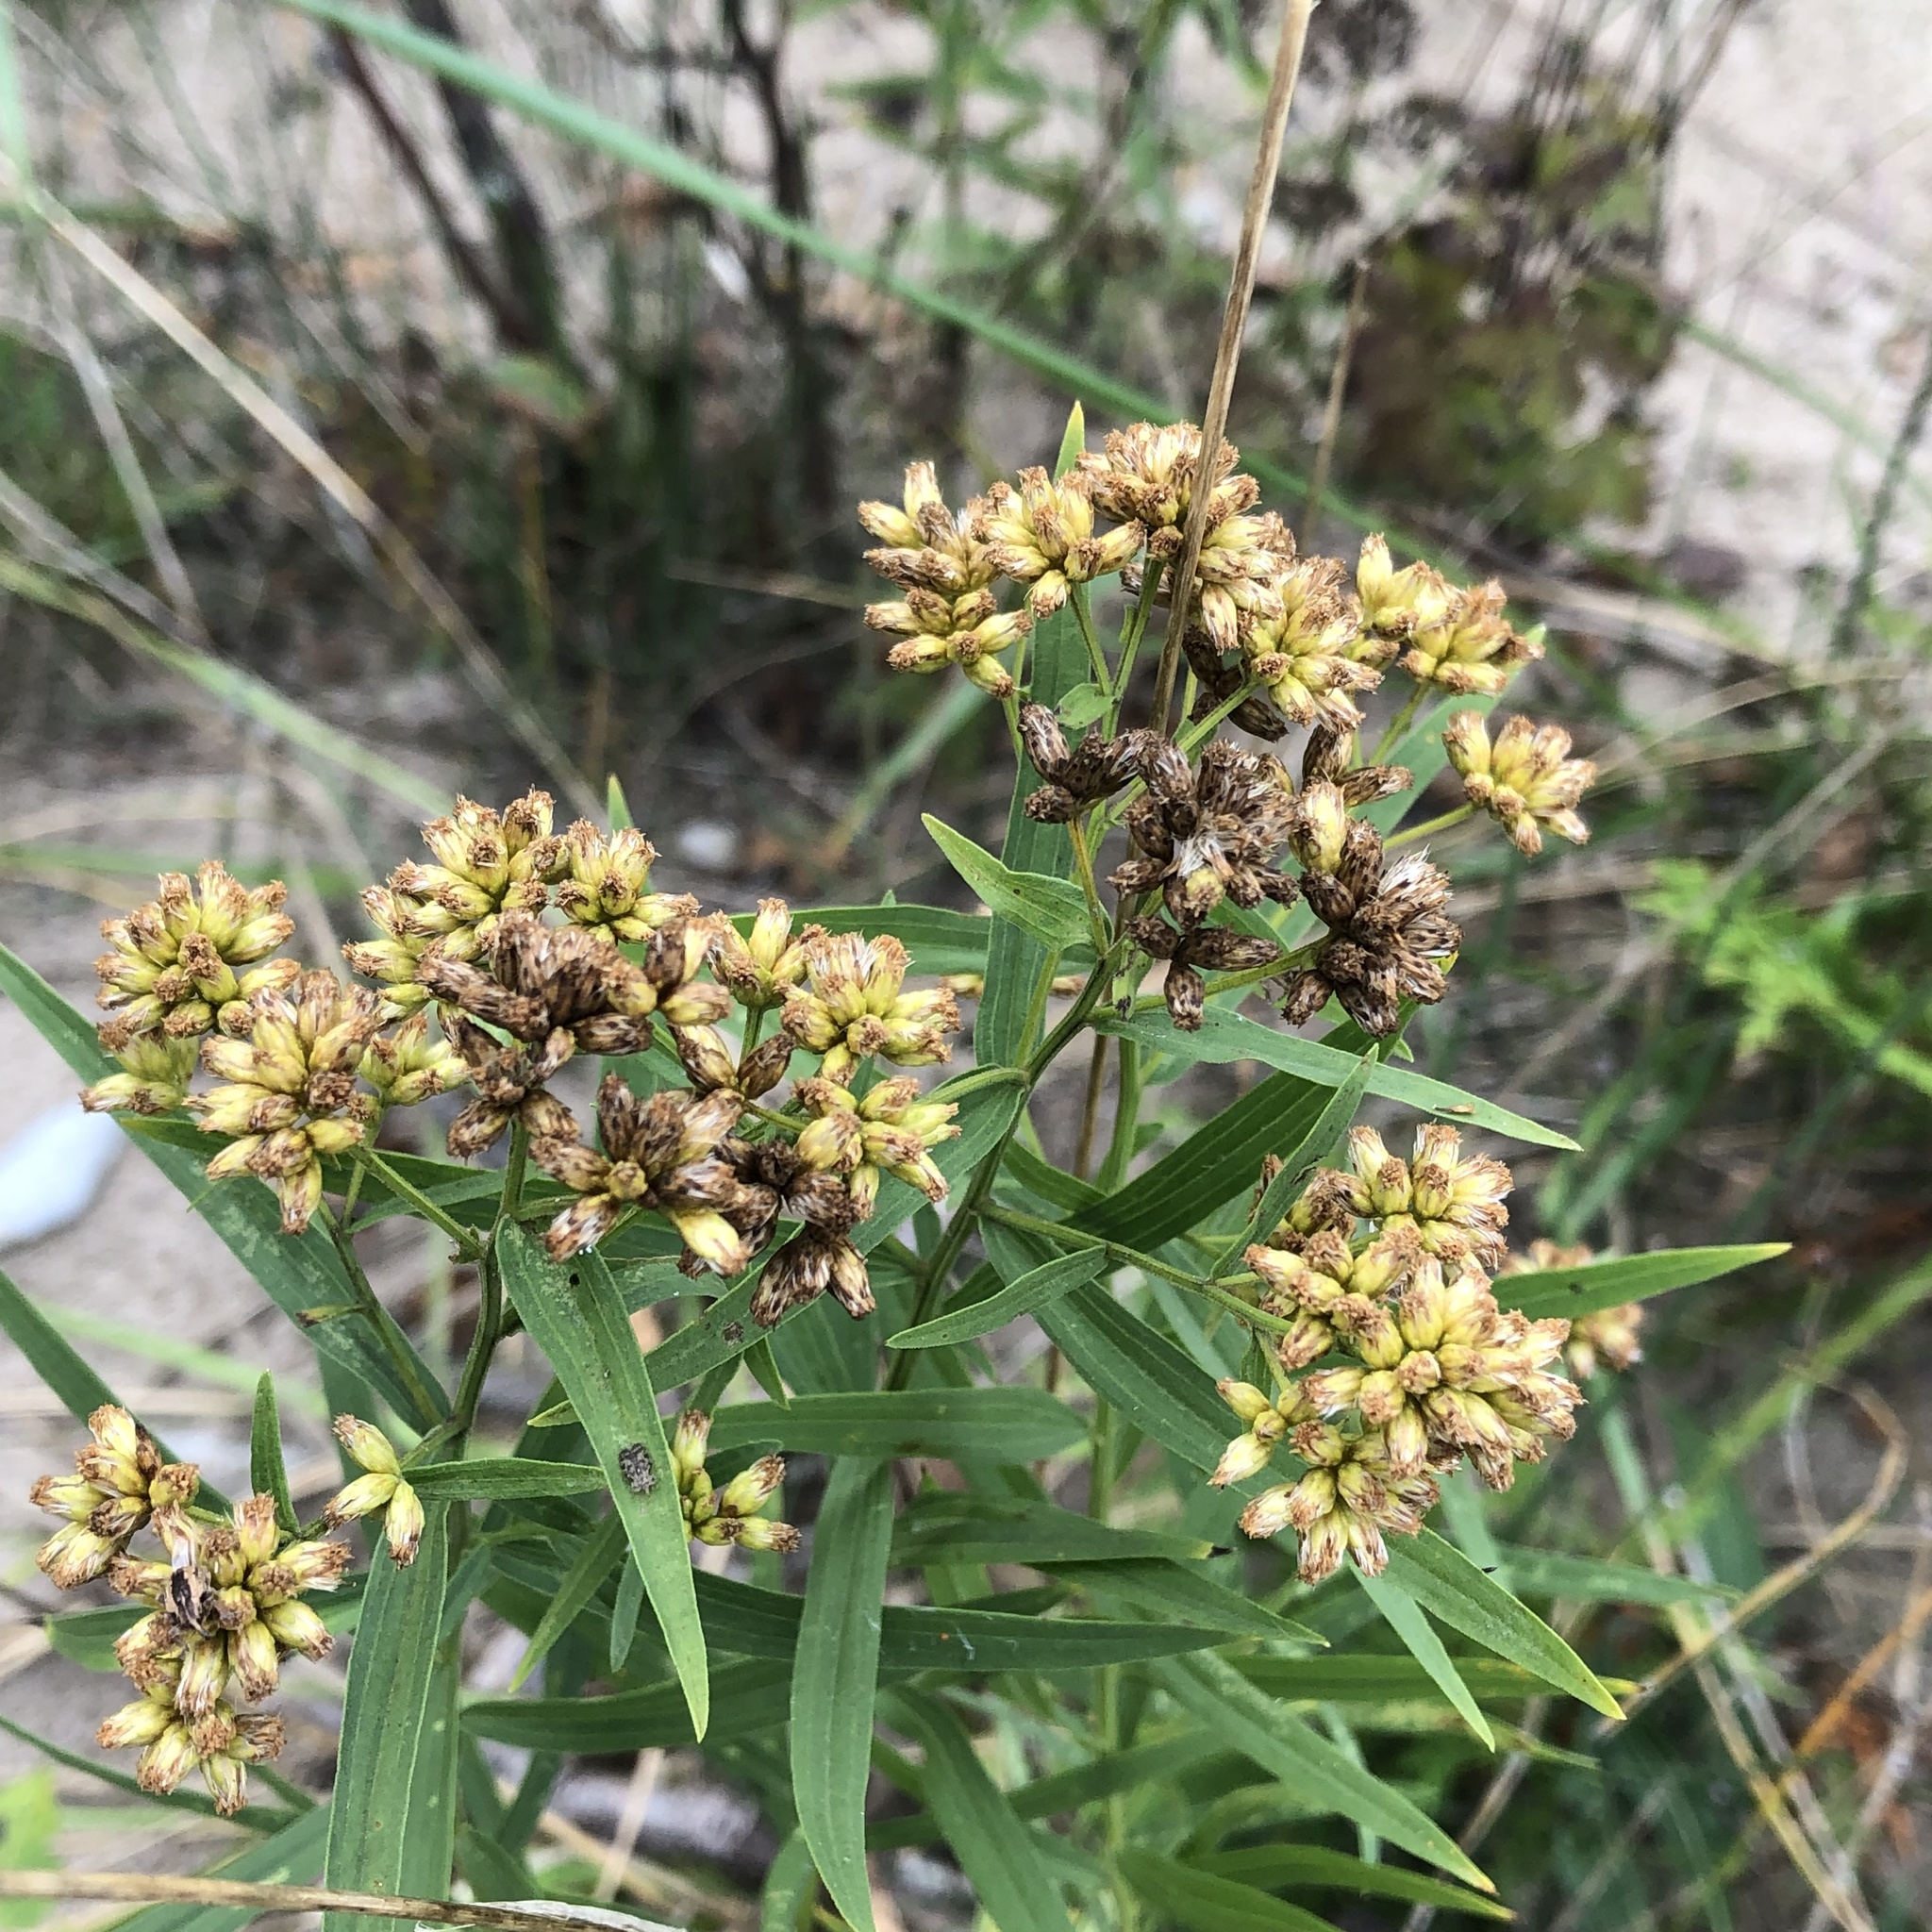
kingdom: Plantae
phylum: Tracheophyta
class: Magnoliopsida
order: Asterales
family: Asteraceae
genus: Euthamia
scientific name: Euthamia graminifolia
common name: Common goldentop
